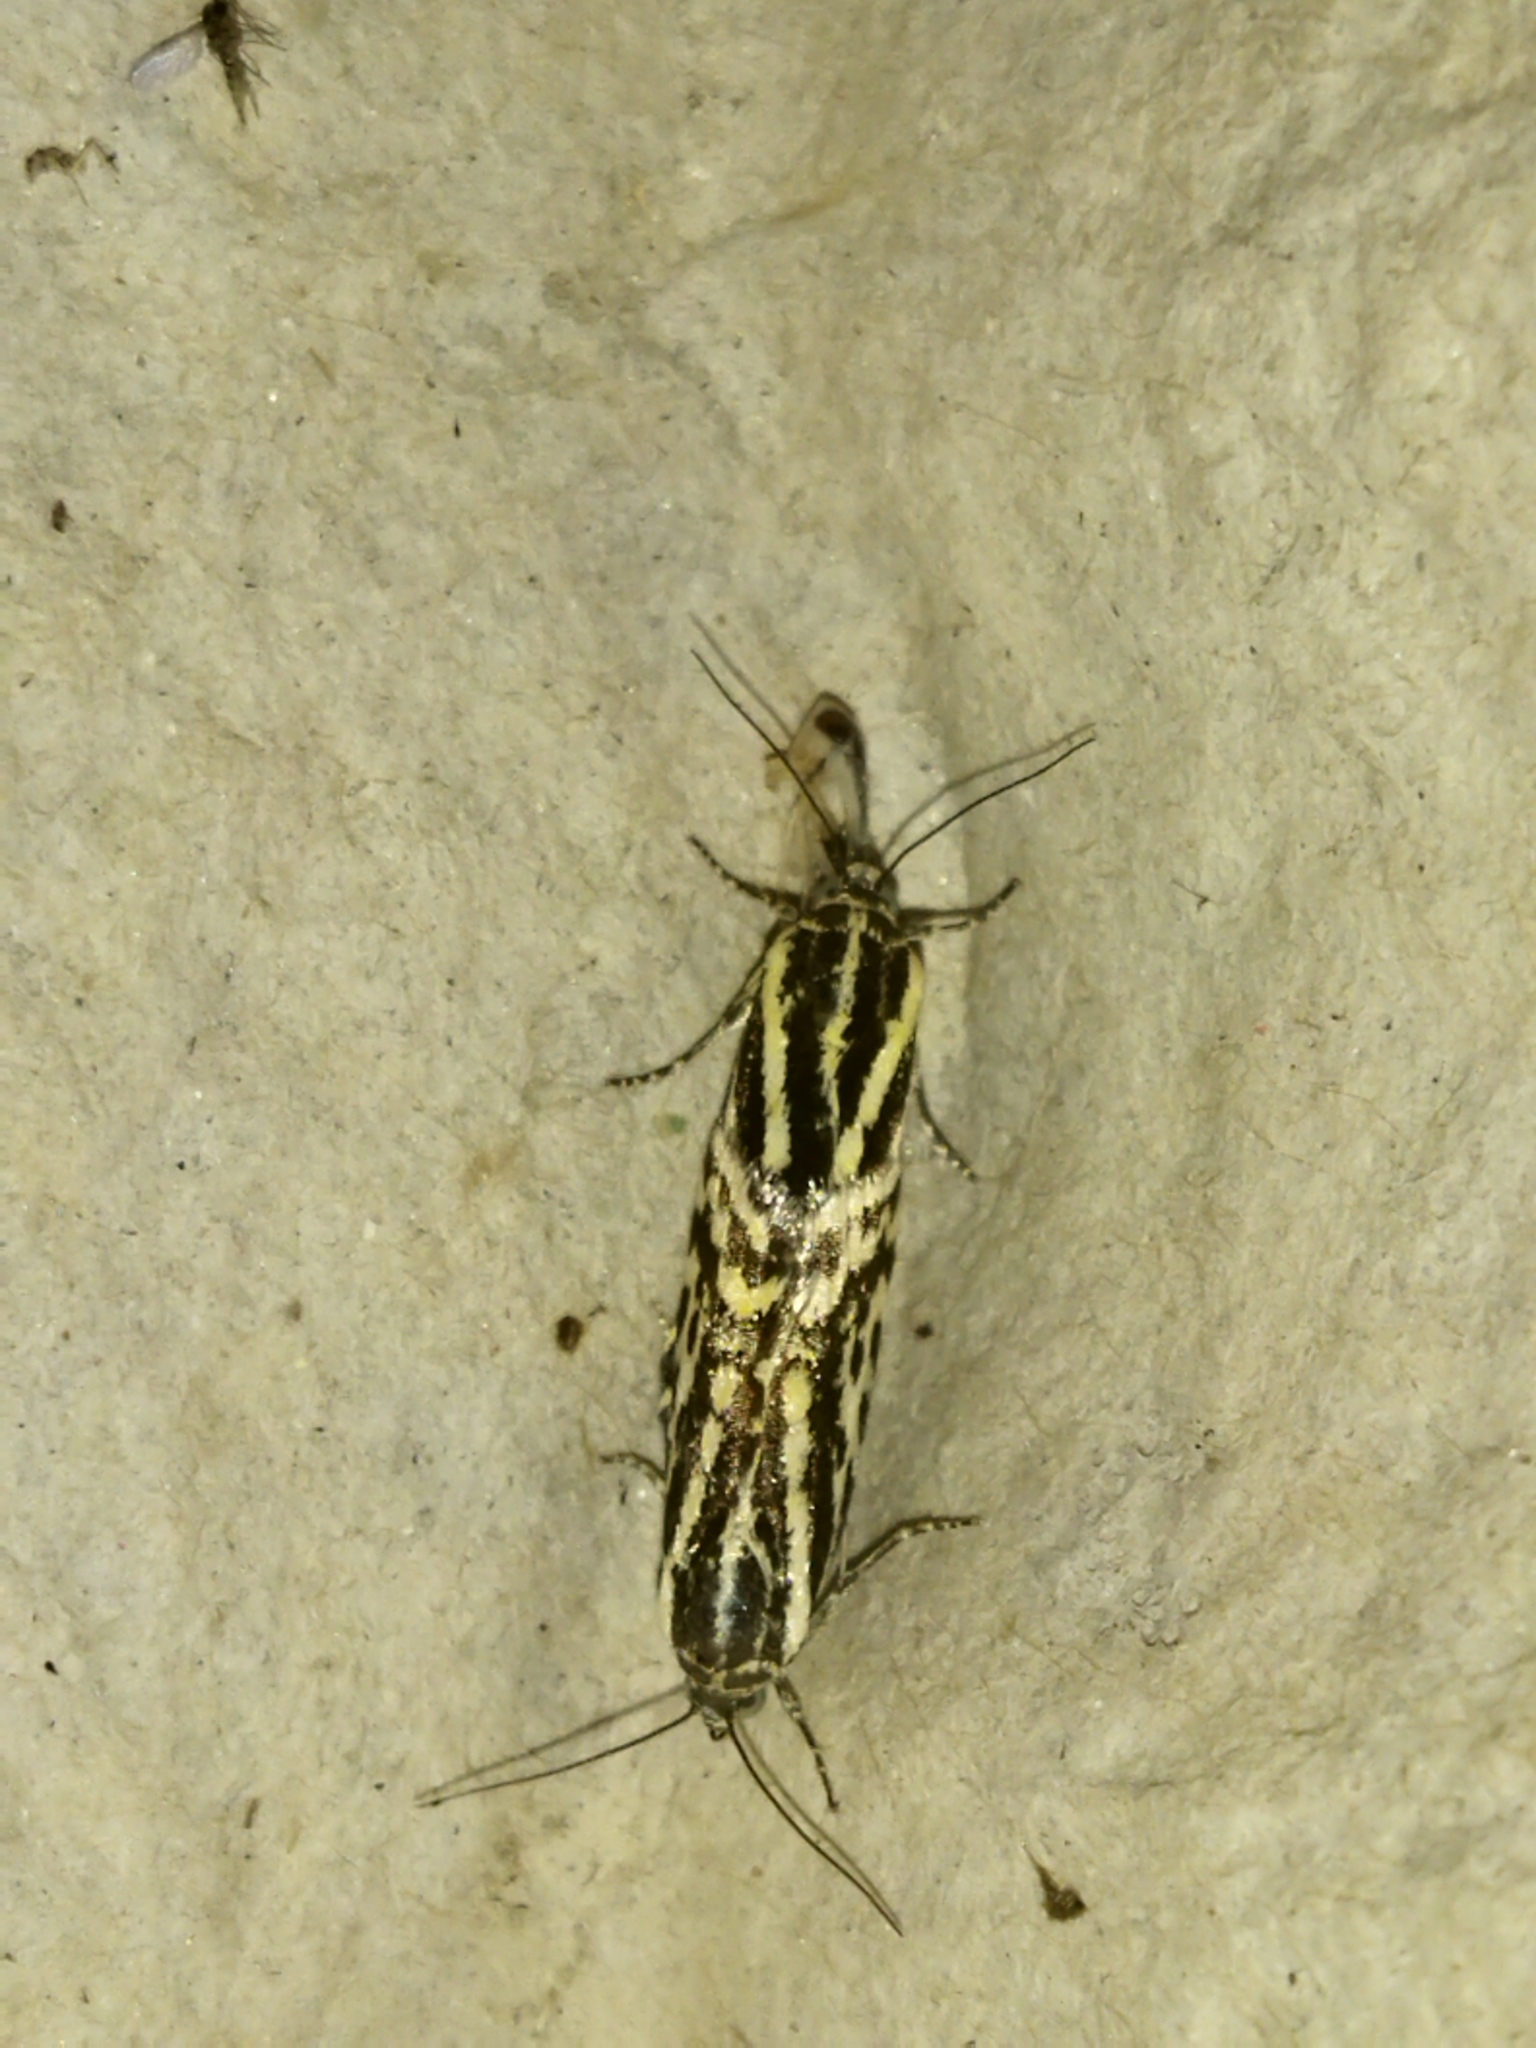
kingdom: Animalia
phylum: Arthropoda
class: Insecta
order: Lepidoptera
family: Noctuidae
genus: Acontia
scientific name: Acontia trabealis
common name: Spotted sulphur
